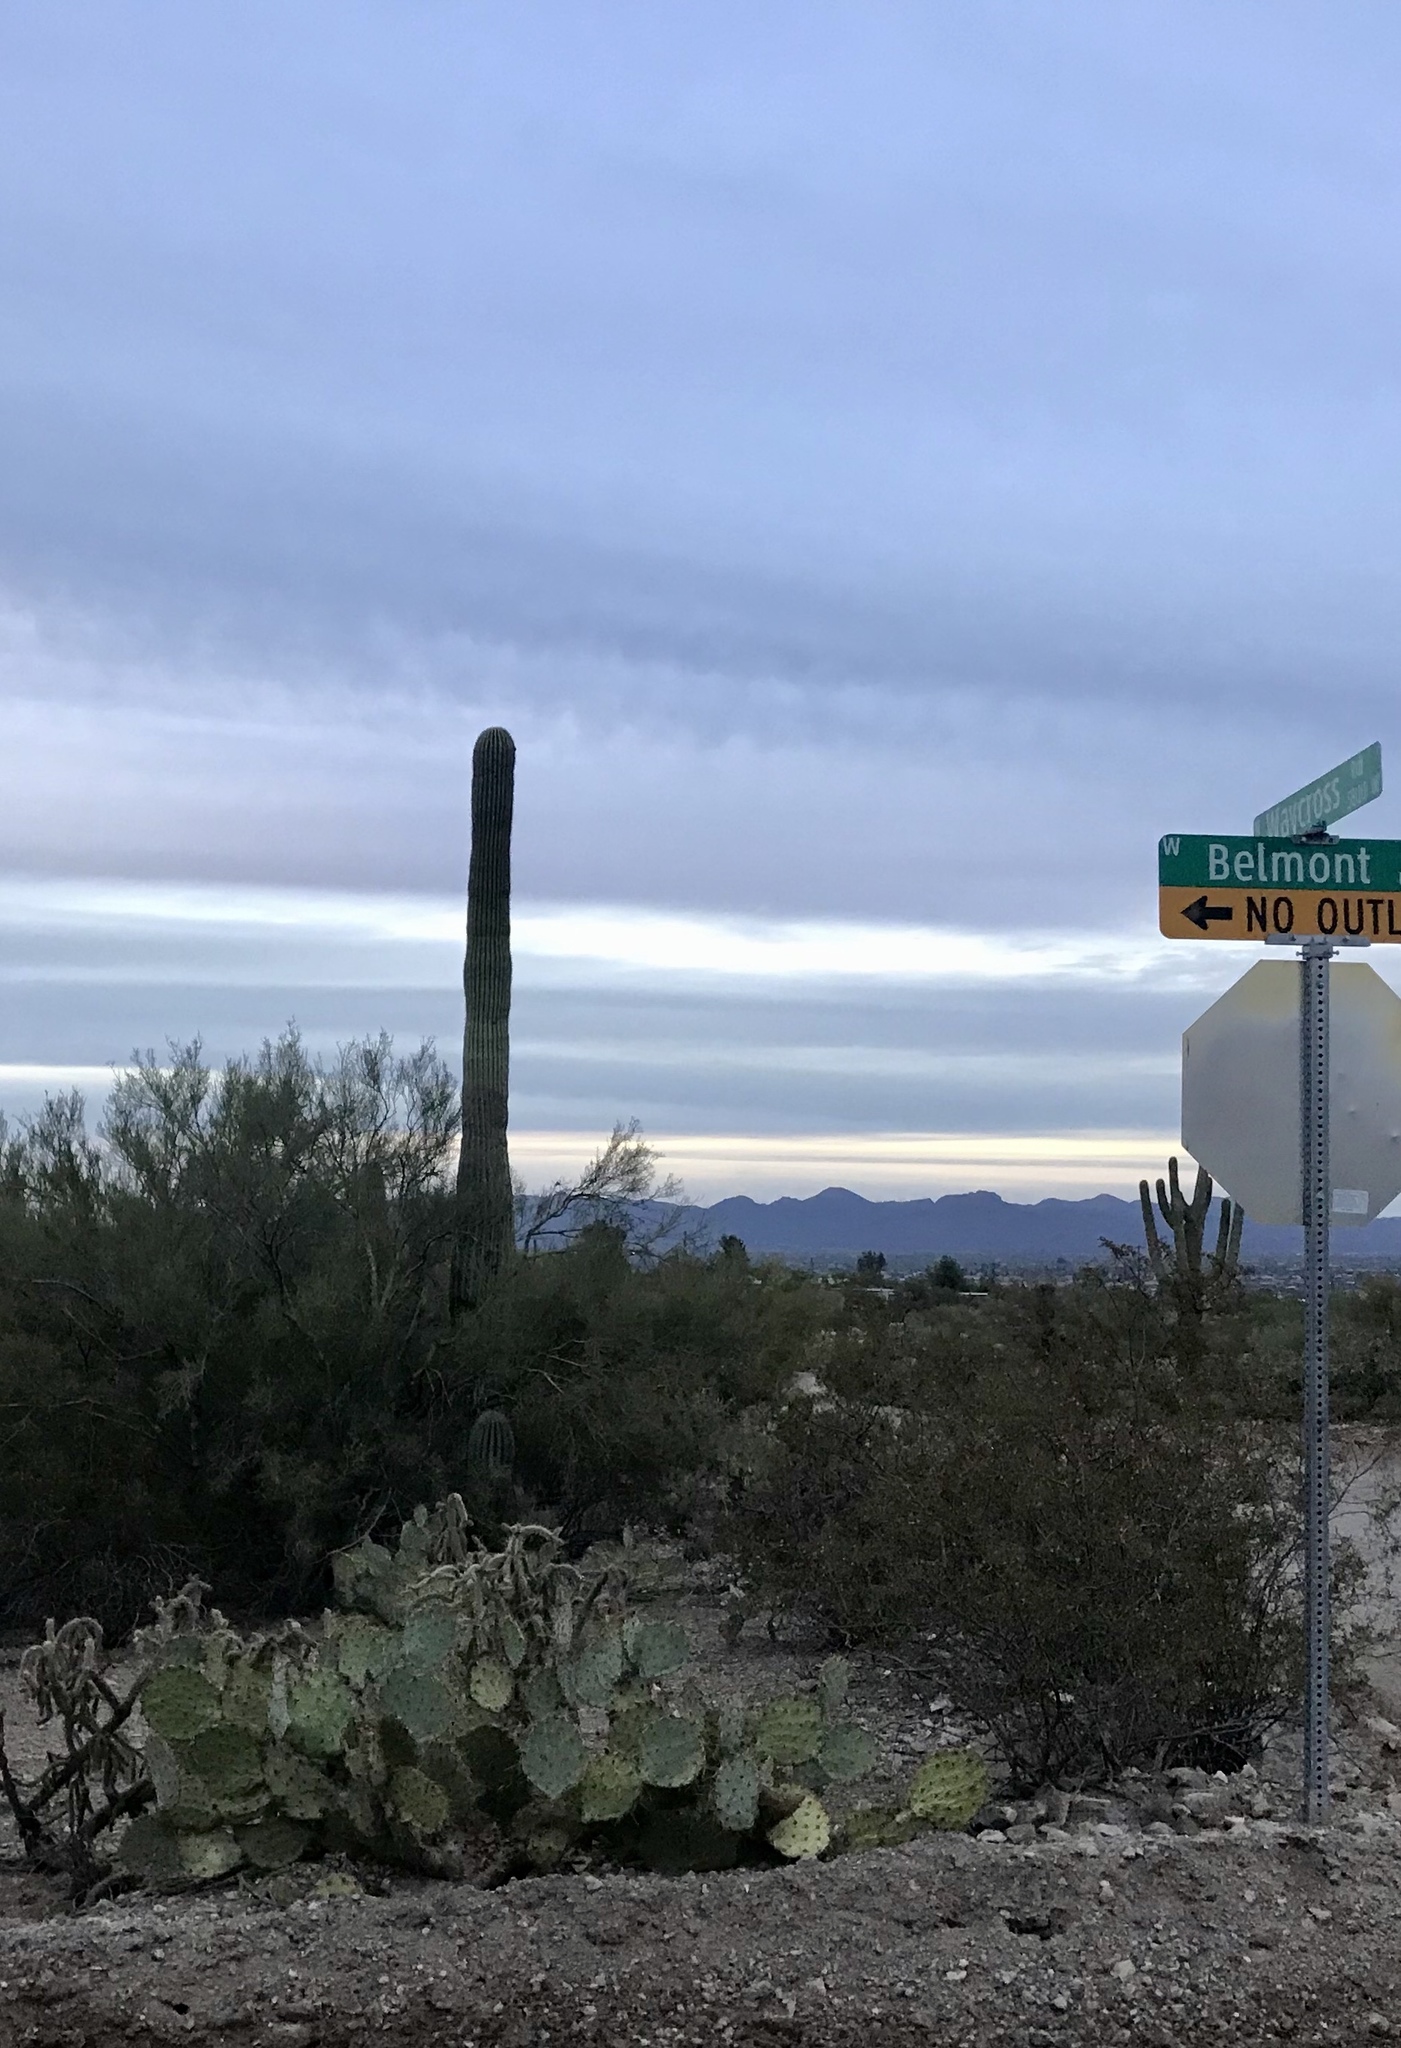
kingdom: Plantae
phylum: Tracheophyta
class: Magnoliopsida
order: Caryophyllales
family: Cactaceae
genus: Carnegiea
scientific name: Carnegiea gigantea
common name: Saguaro
